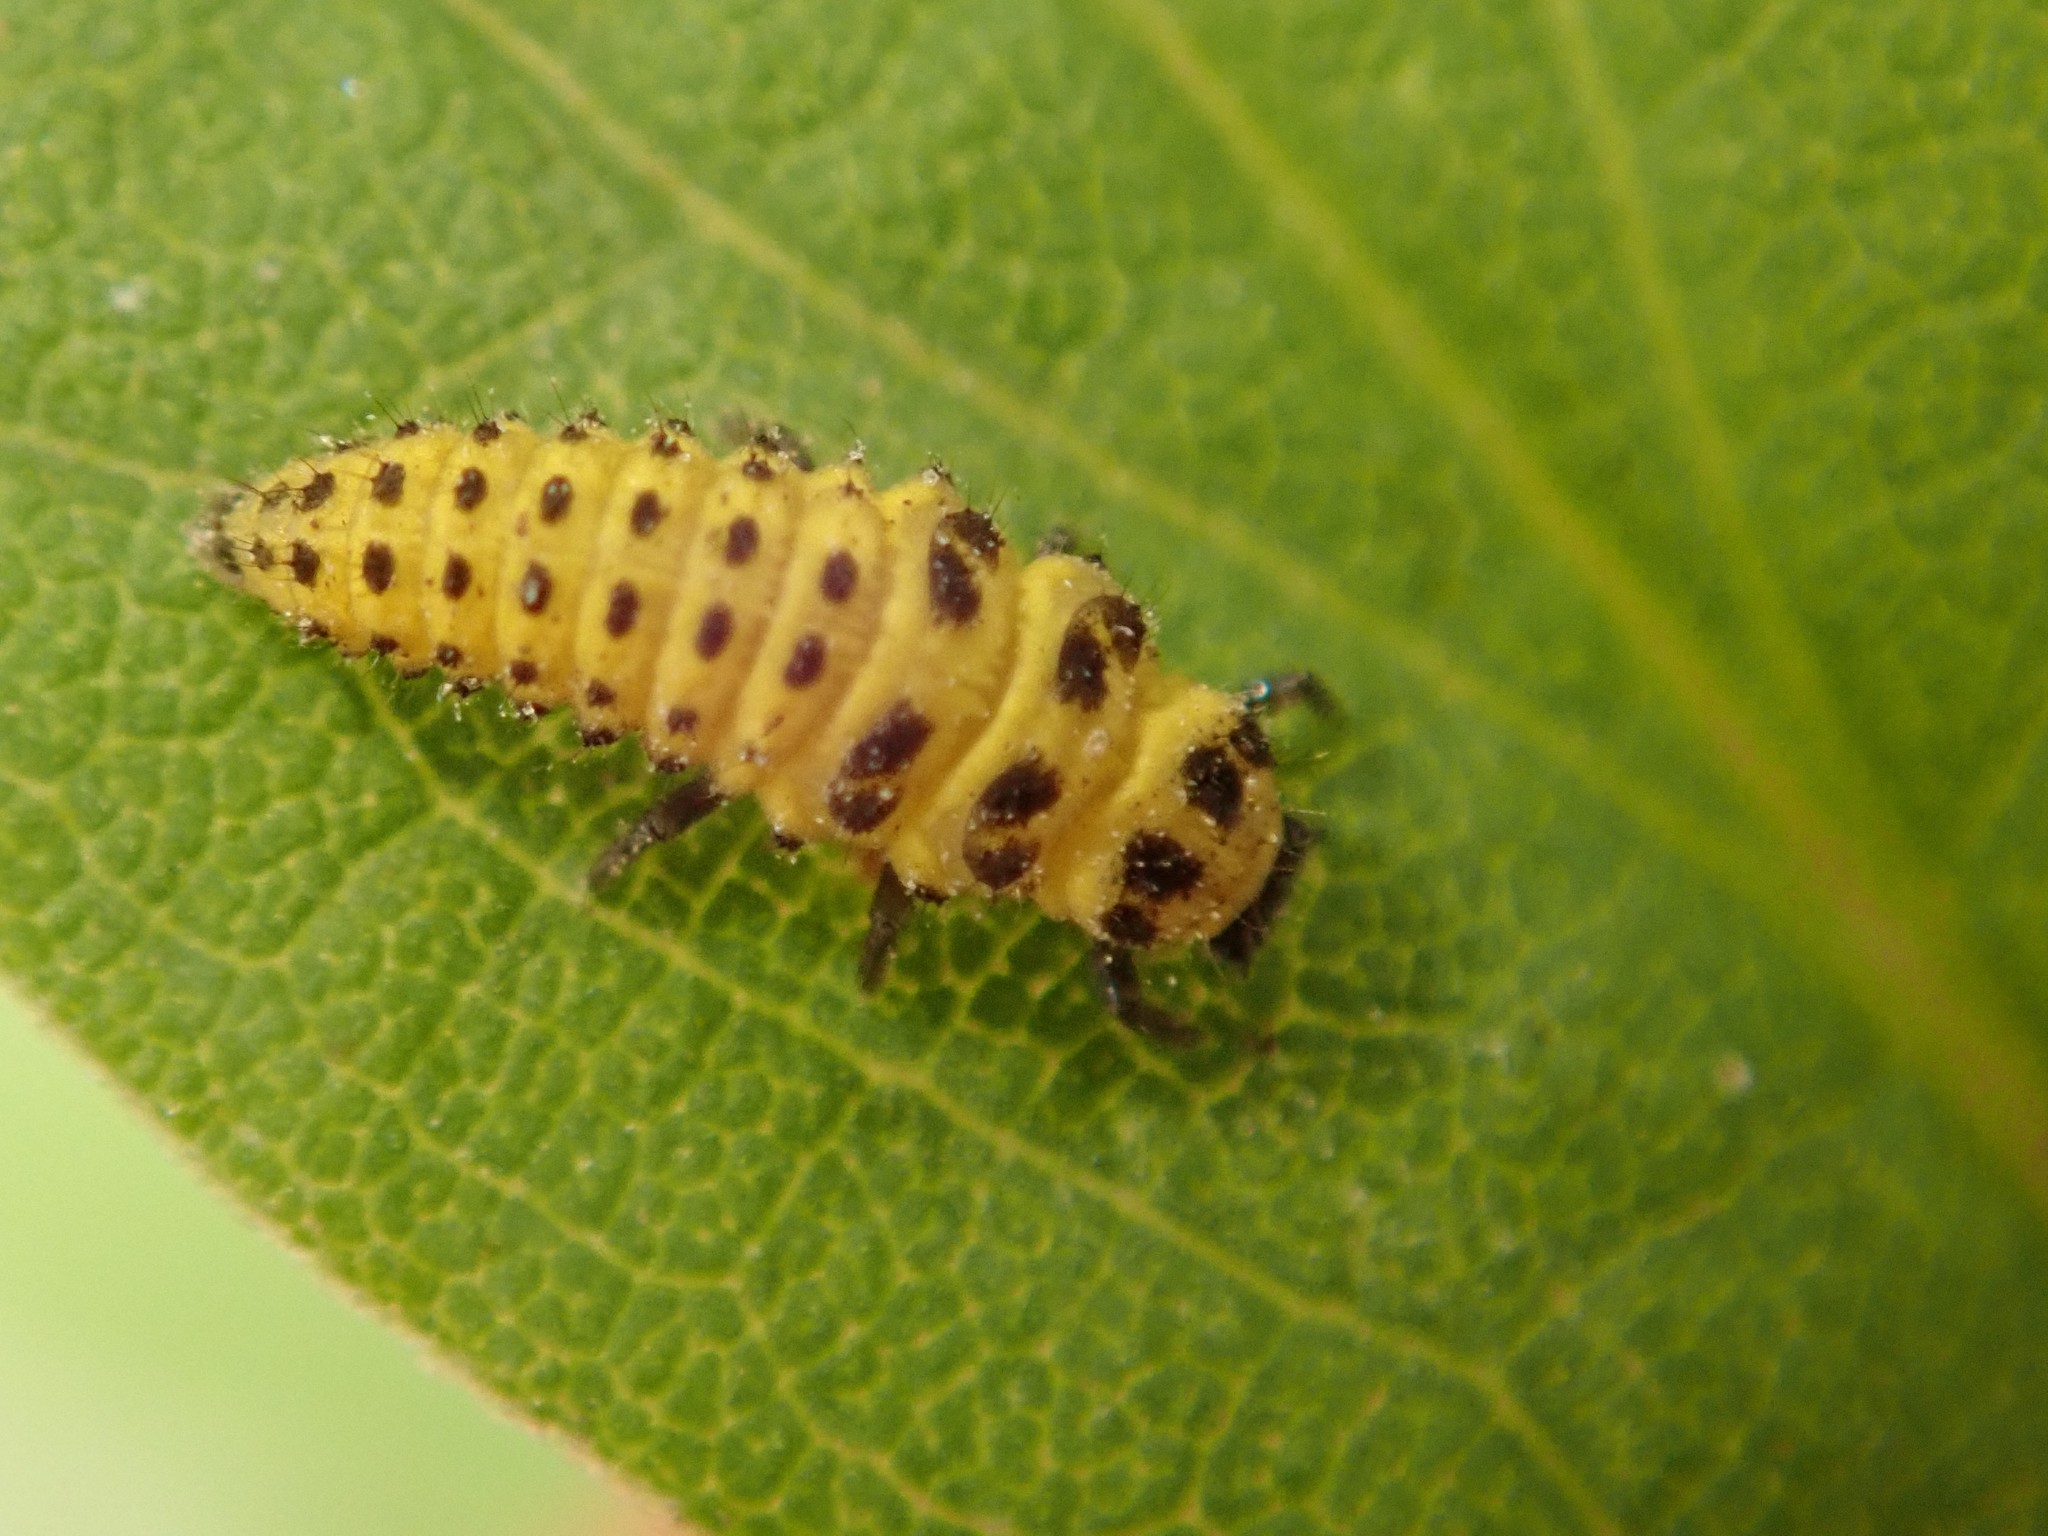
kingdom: Animalia
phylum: Arthropoda
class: Insecta
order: Coleoptera
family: Coccinellidae
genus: Psyllobora
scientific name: Psyllobora vigintiduopunctata
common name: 22-spot ladybird
